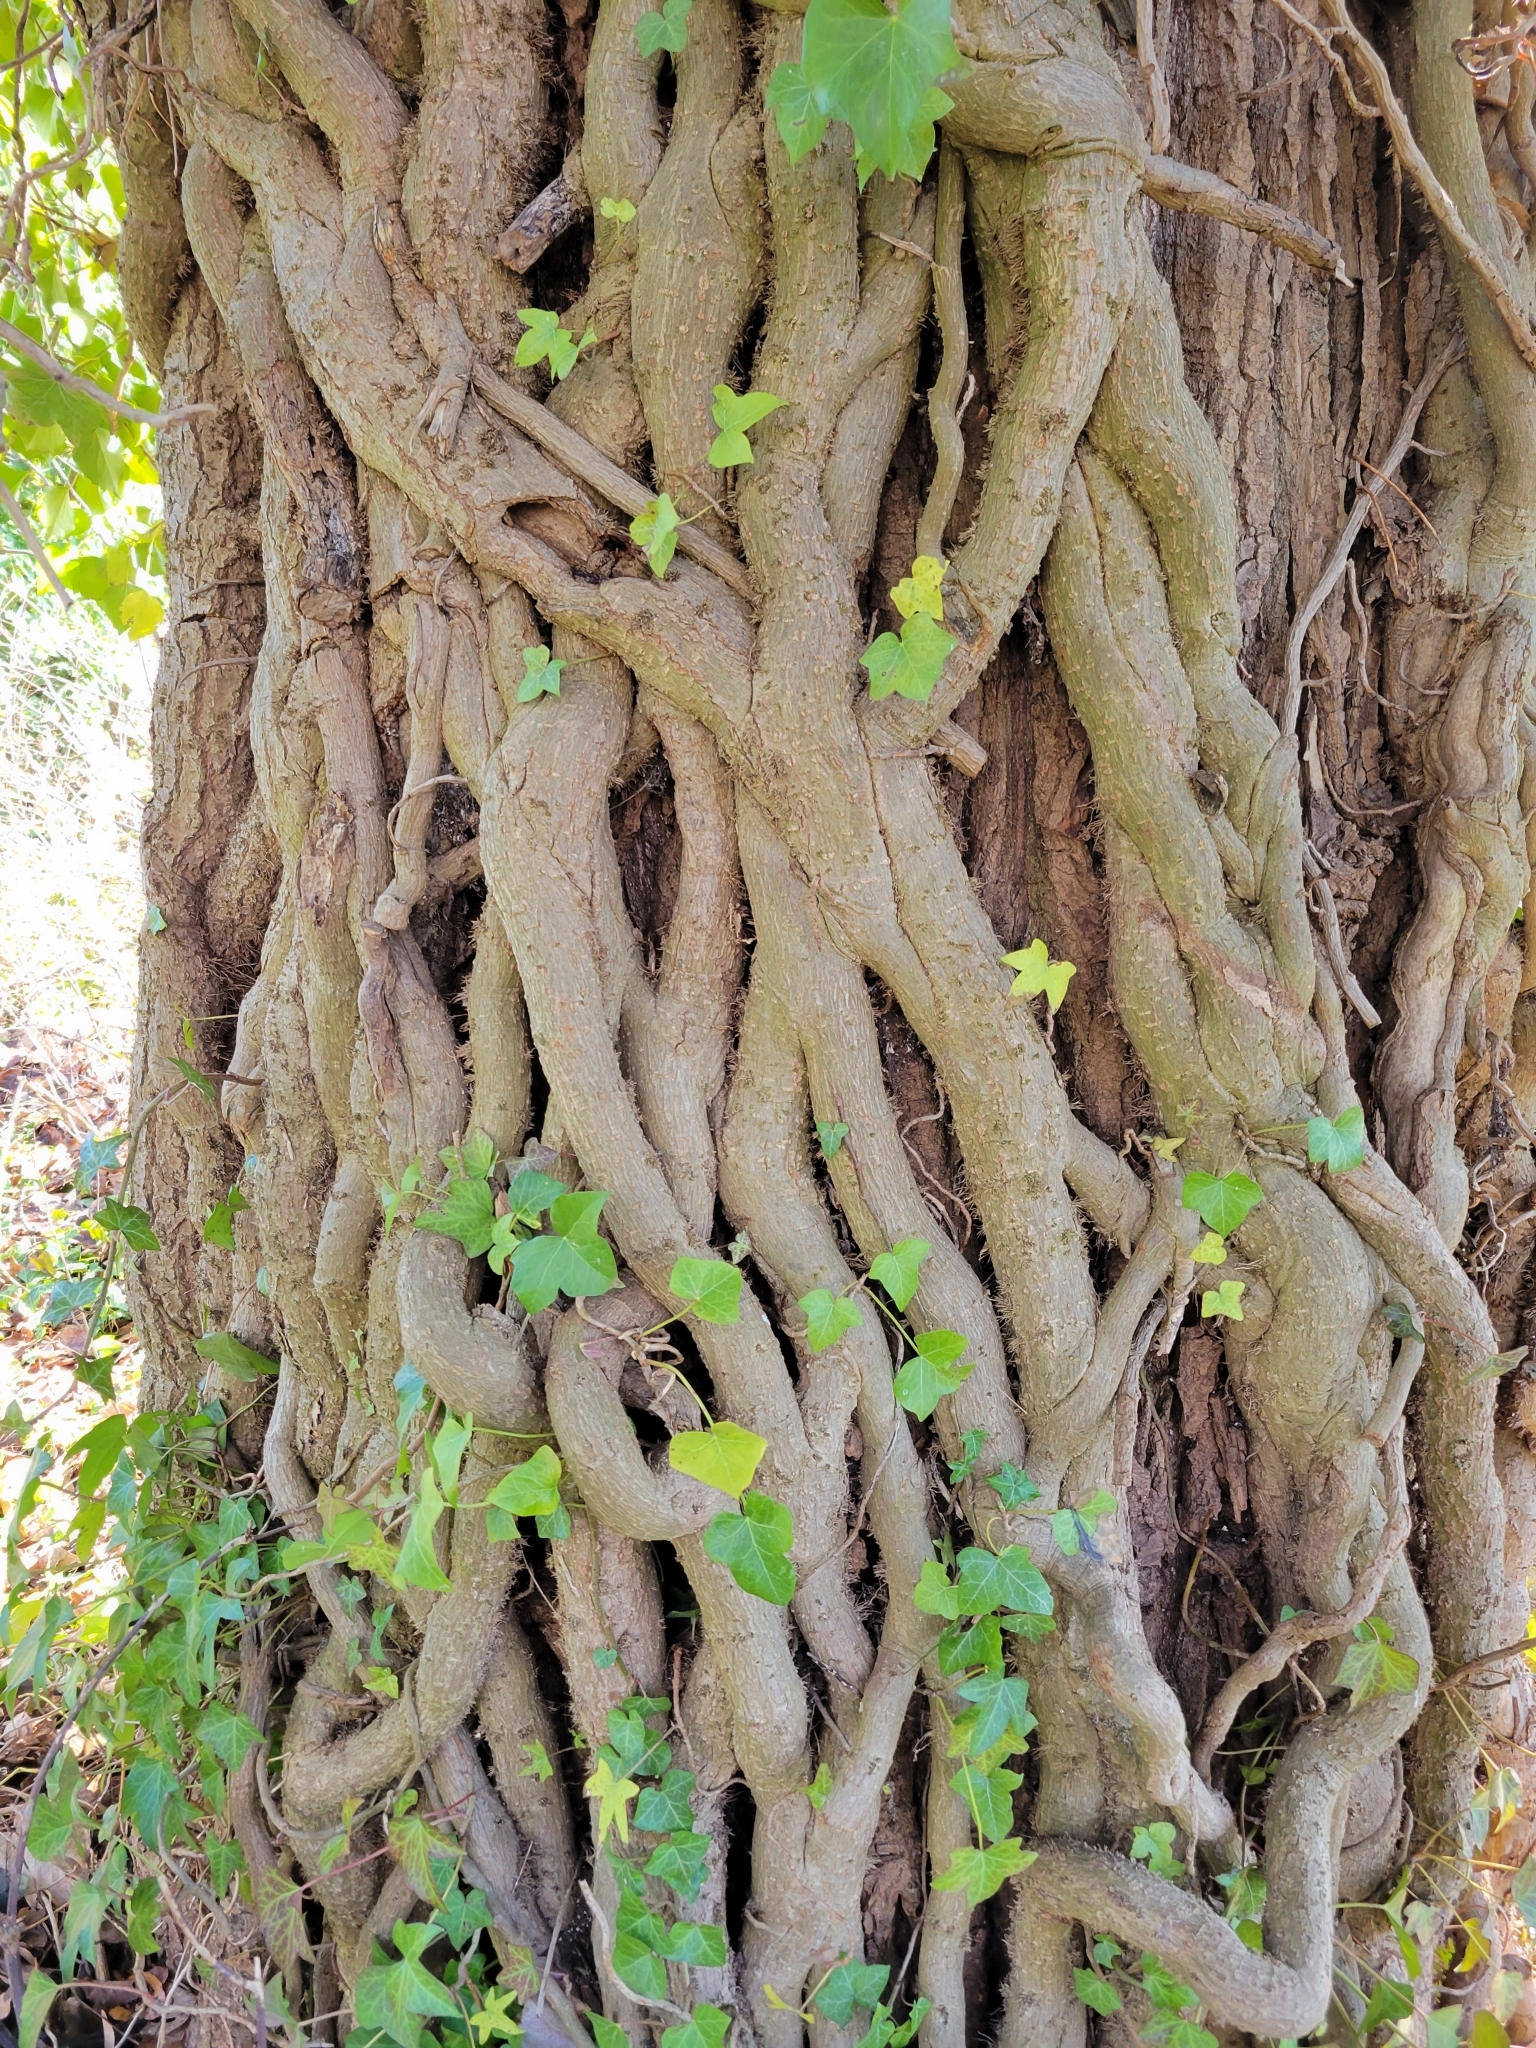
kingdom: Plantae
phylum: Tracheophyta
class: Magnoliopsida
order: Apiales
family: Araliaceae
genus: Hedera
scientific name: Hedera helix
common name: Ivy
